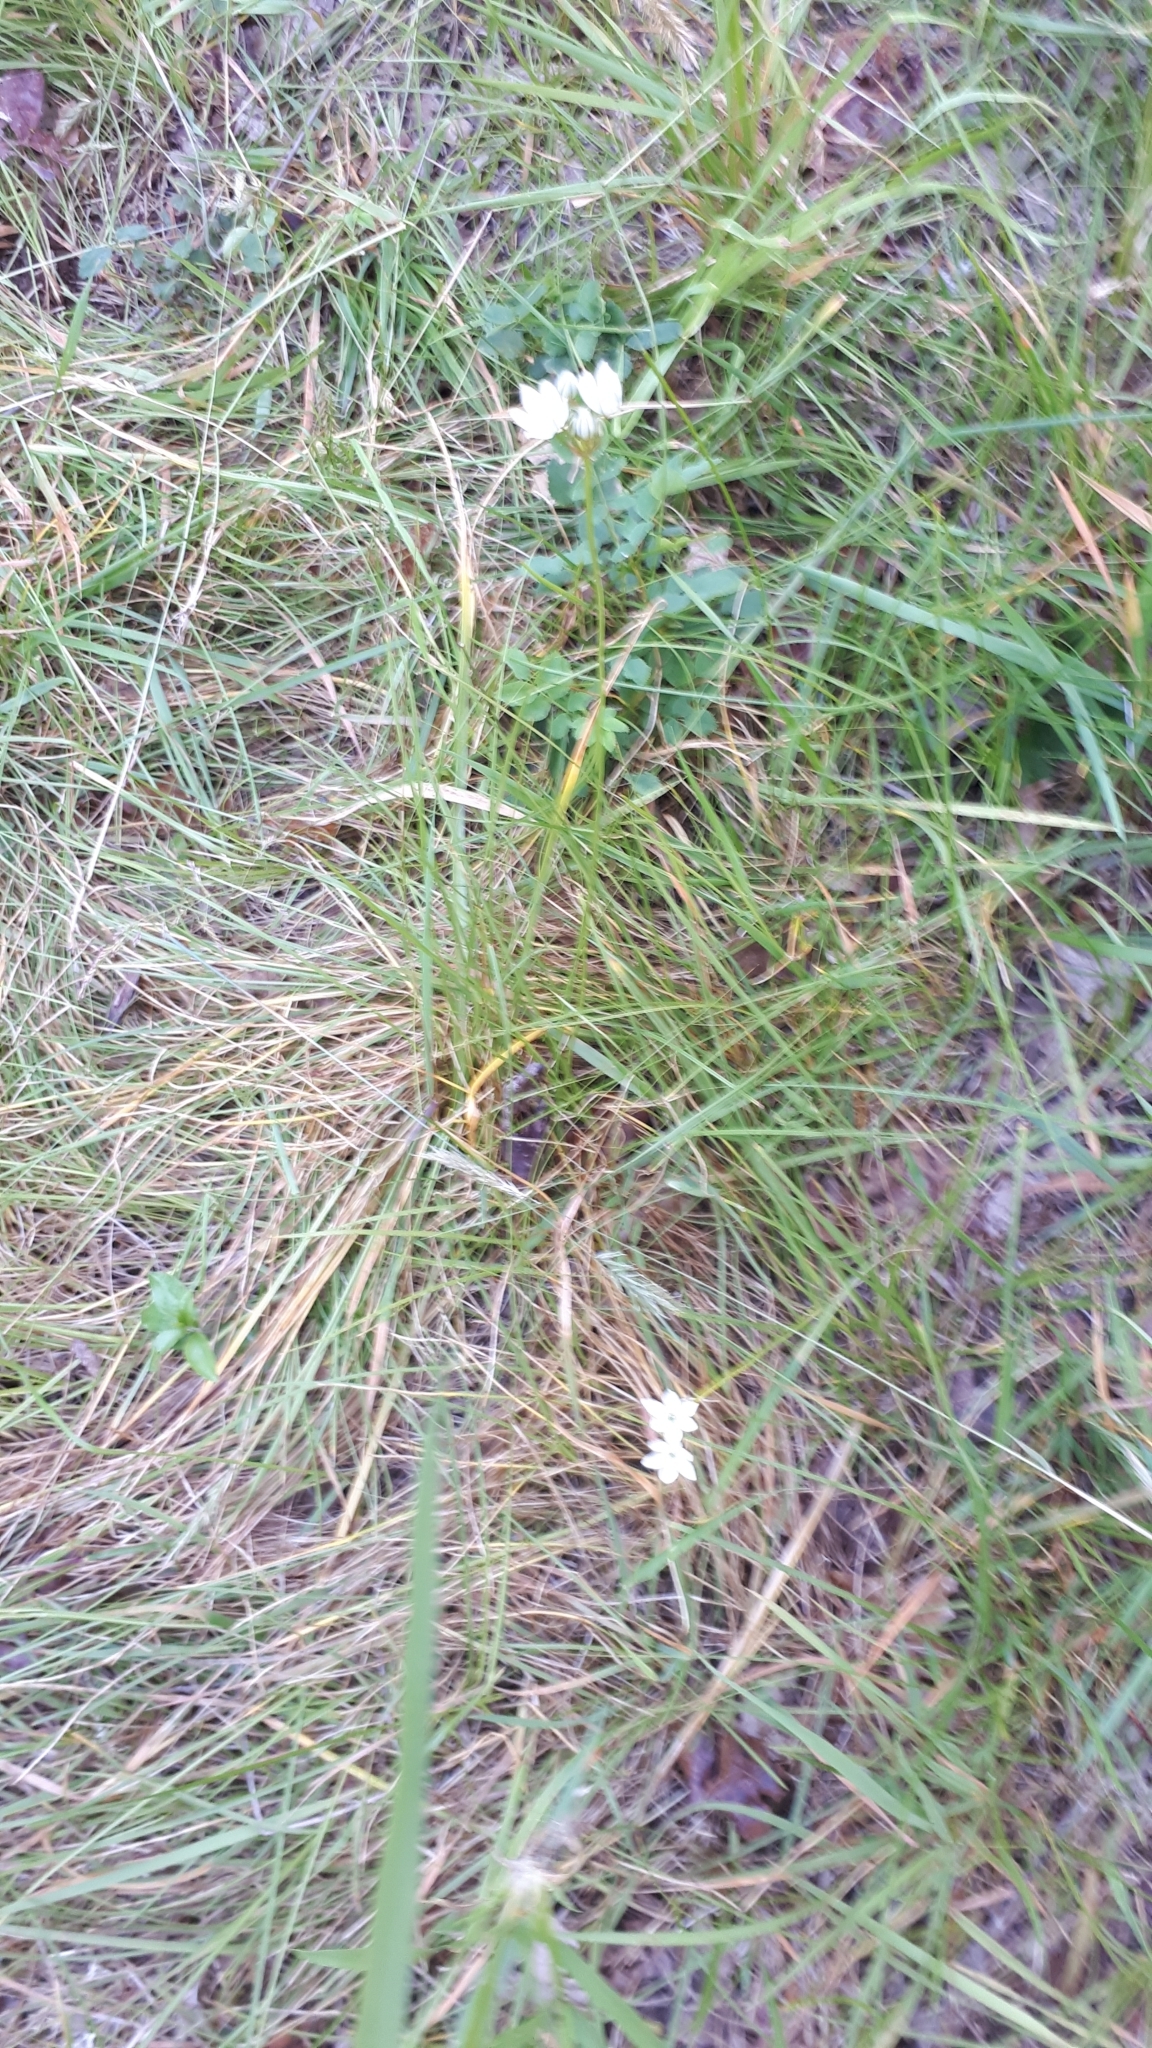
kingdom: Plantae
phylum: Tracheophyta
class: Liliopsida
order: Asparagales
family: Asparagaceae
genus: Triteleia
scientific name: Triteleia hyacinthina
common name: White brodiaea
